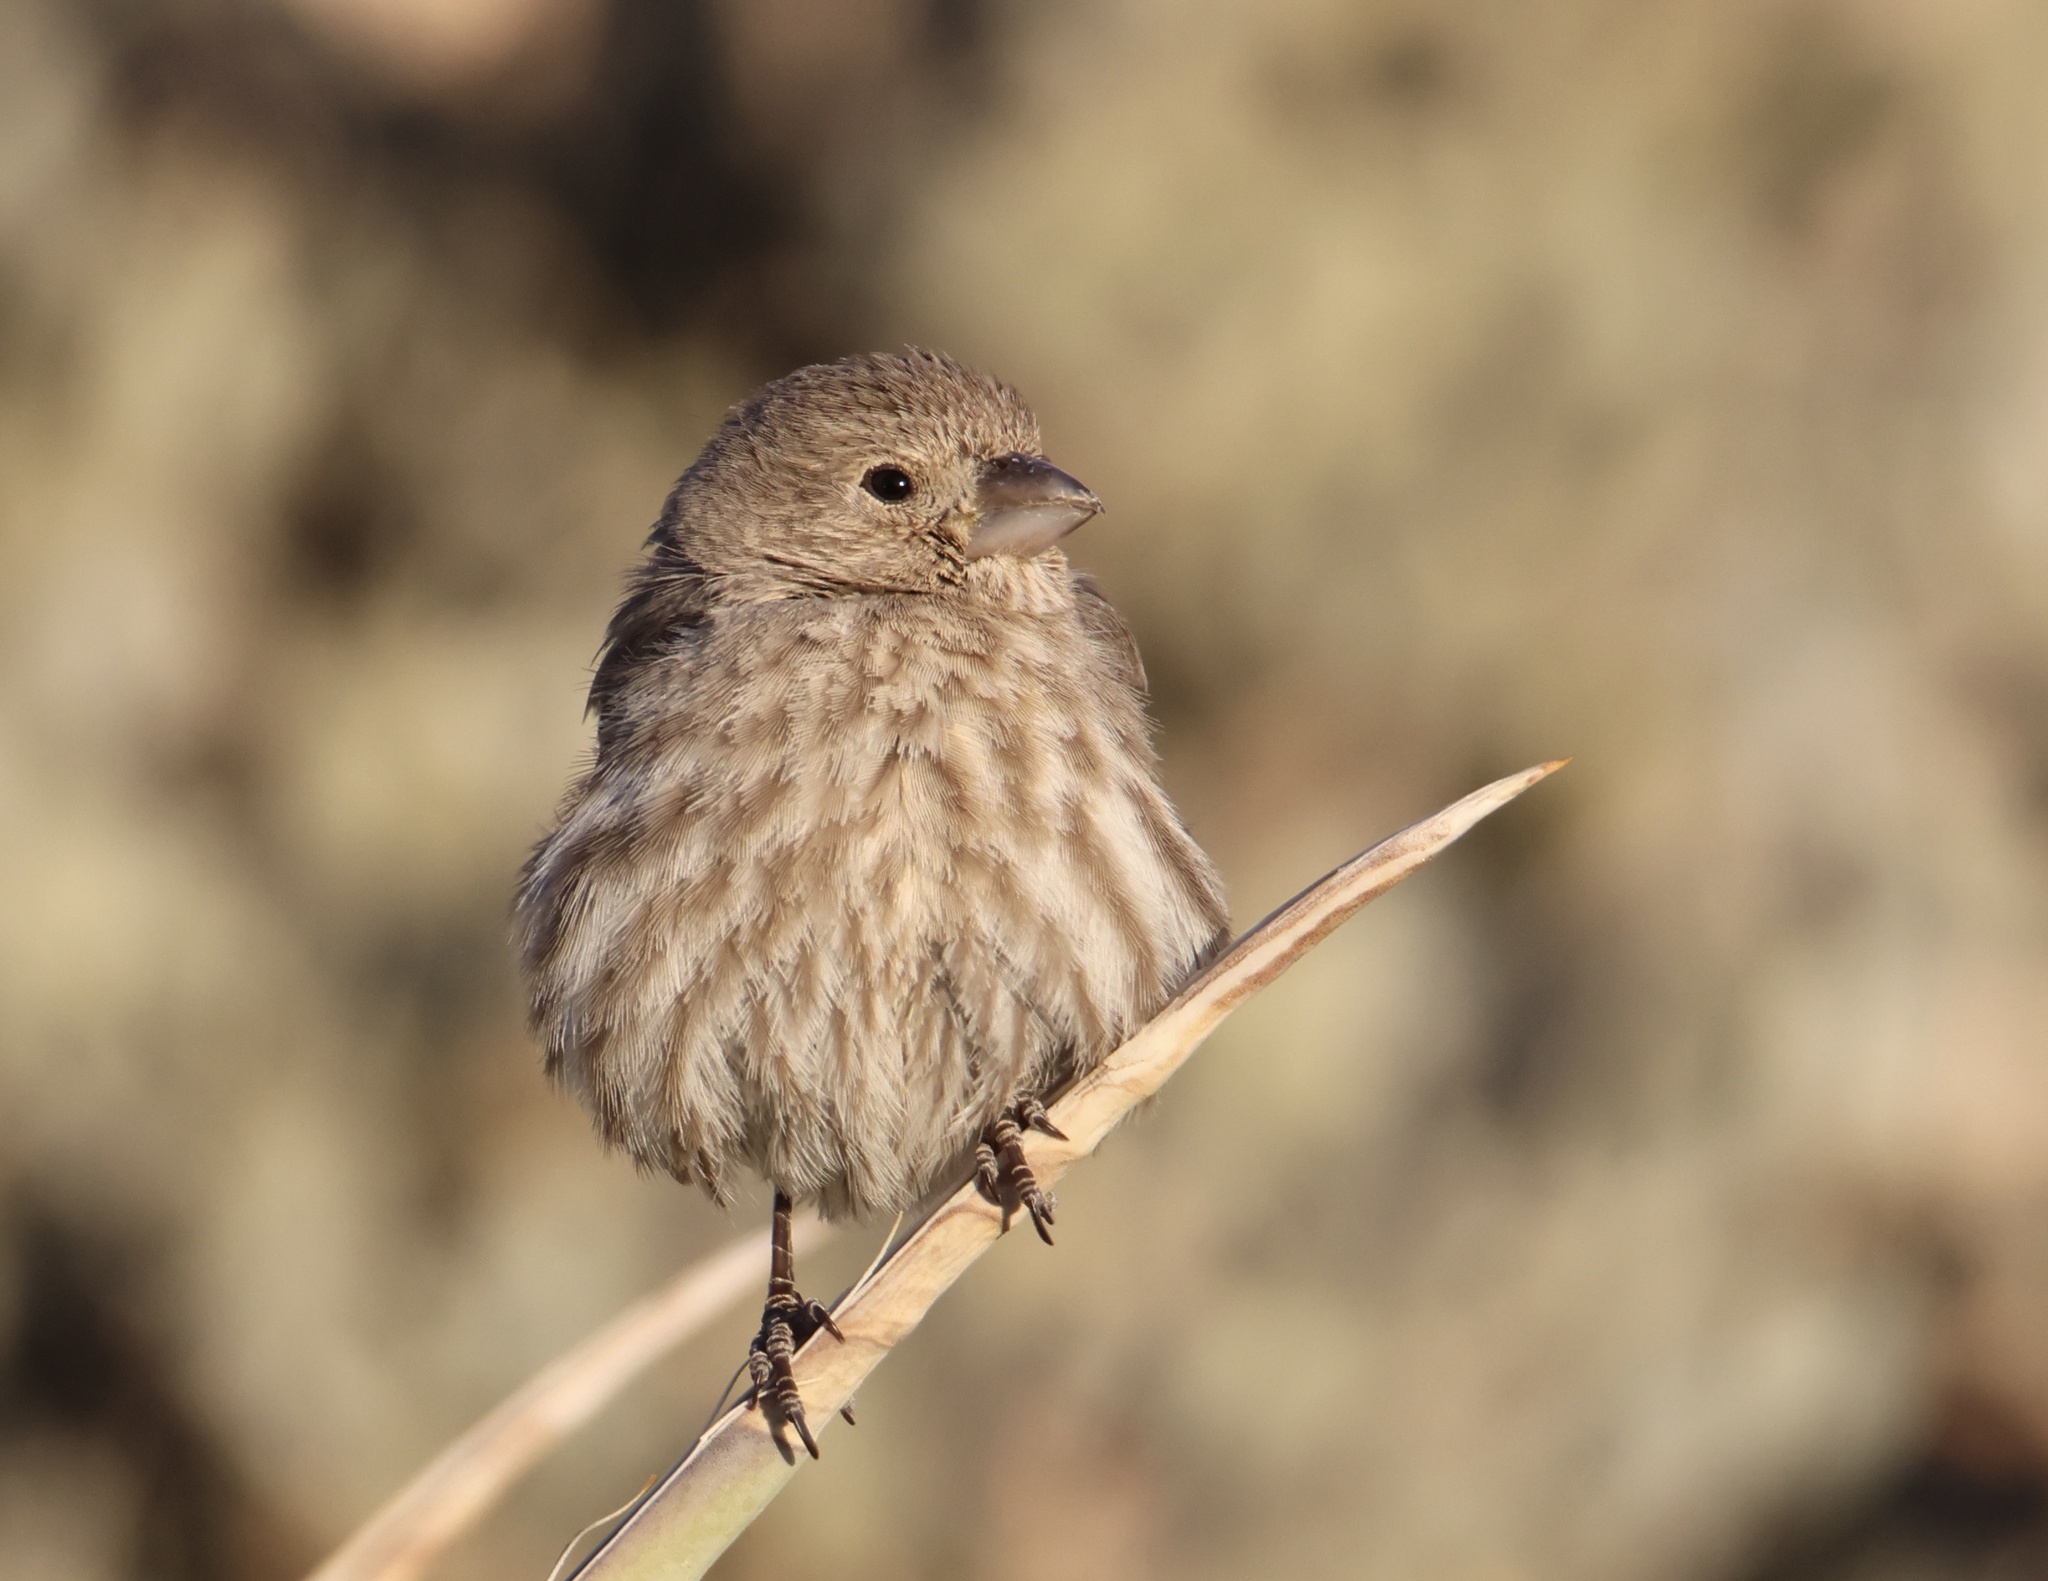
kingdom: Animalia
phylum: Chordata
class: Aves
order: Passeriformes
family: Fringillidae
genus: Haemorhous
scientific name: Haemorhous mexicanus
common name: House finch
